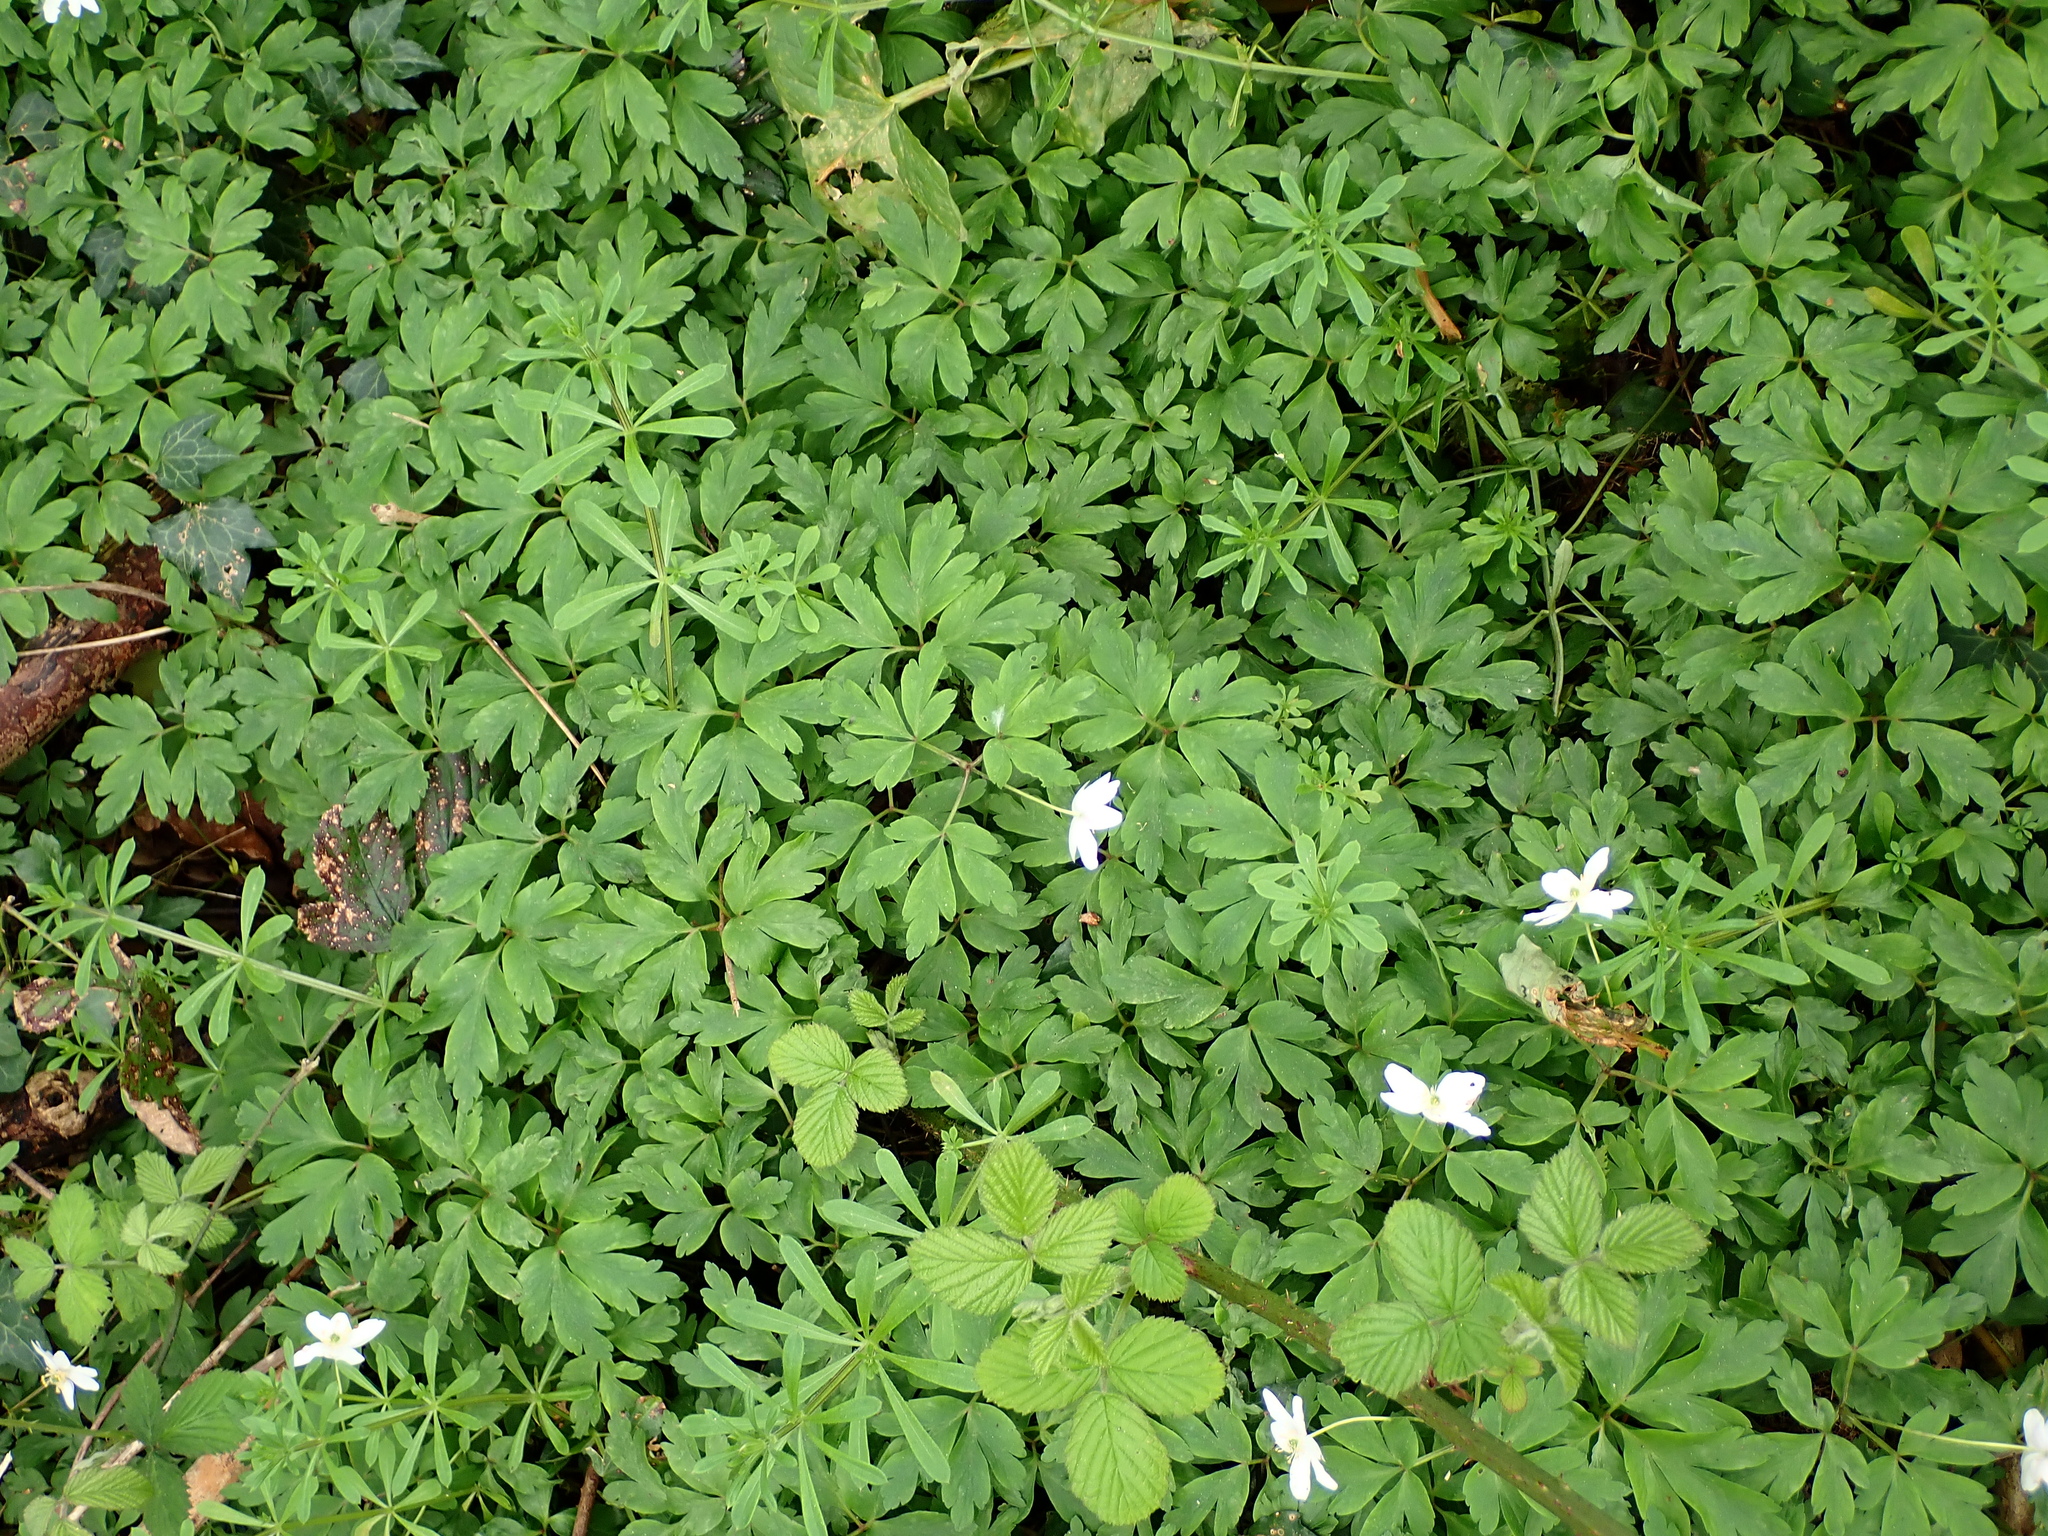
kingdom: Plantae
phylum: Tracheophyta
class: Magnoliopsida
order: Ranunculales
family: Ranunculaceae
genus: Anemone
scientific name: Anemone nemorosa
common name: Wood anemone
